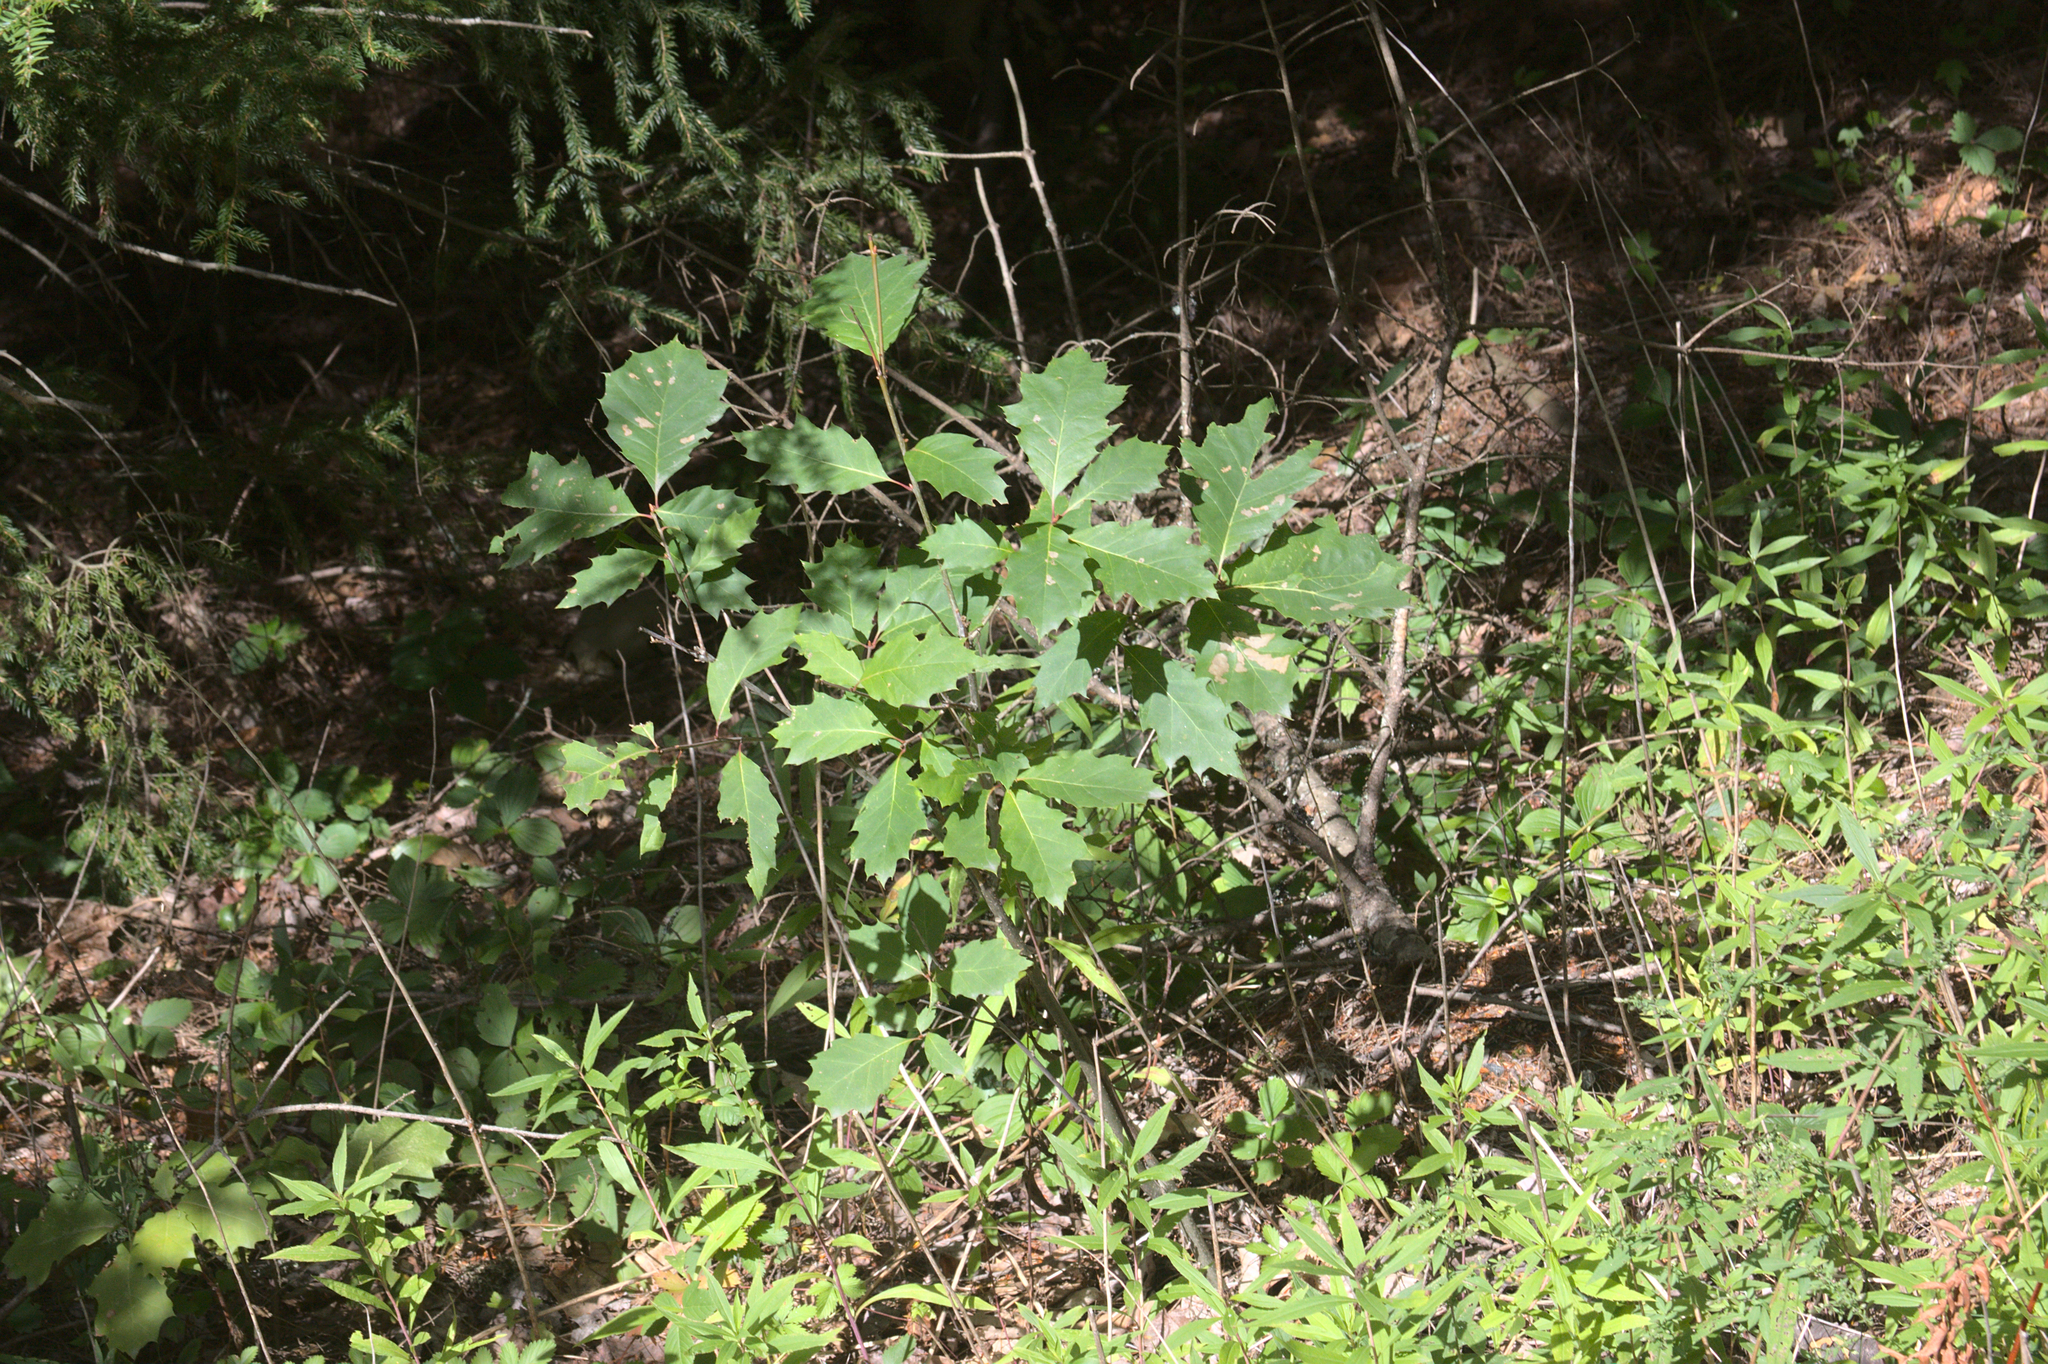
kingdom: Plantae
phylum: Tracheophyta
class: Magnoliopsida
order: Fagales
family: Fagaceae
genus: Quercus
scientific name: Quercus rubra
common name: Red oak
